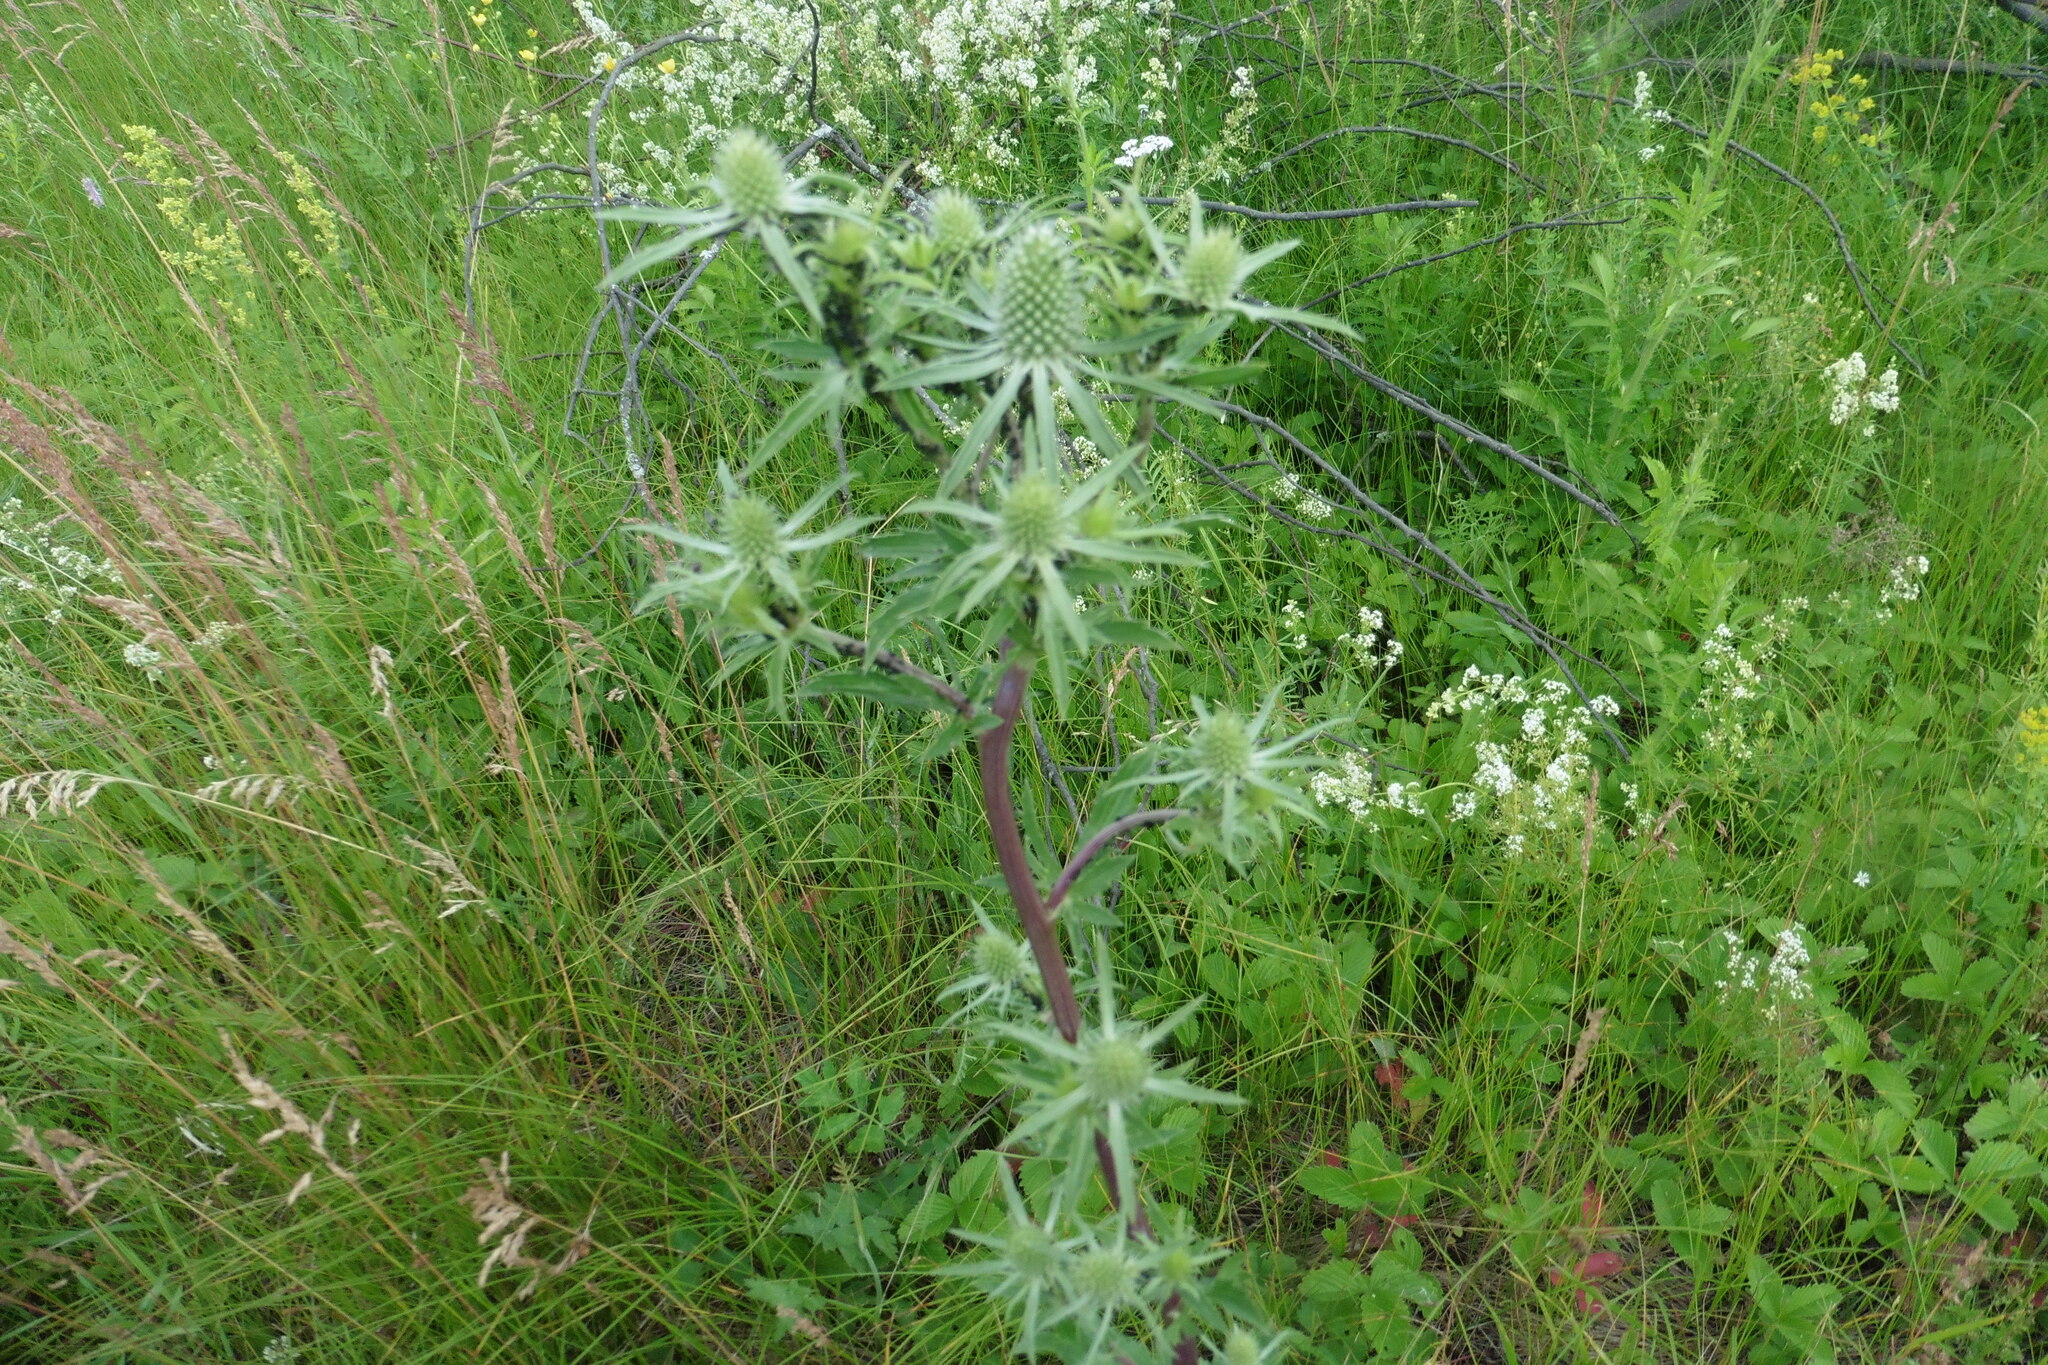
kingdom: Plantae
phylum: Tracheophyta
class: Magnoliopsida
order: Apiales
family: Apiaceae
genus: Eryngium
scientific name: Eryngium planum
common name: Blue eryngo
